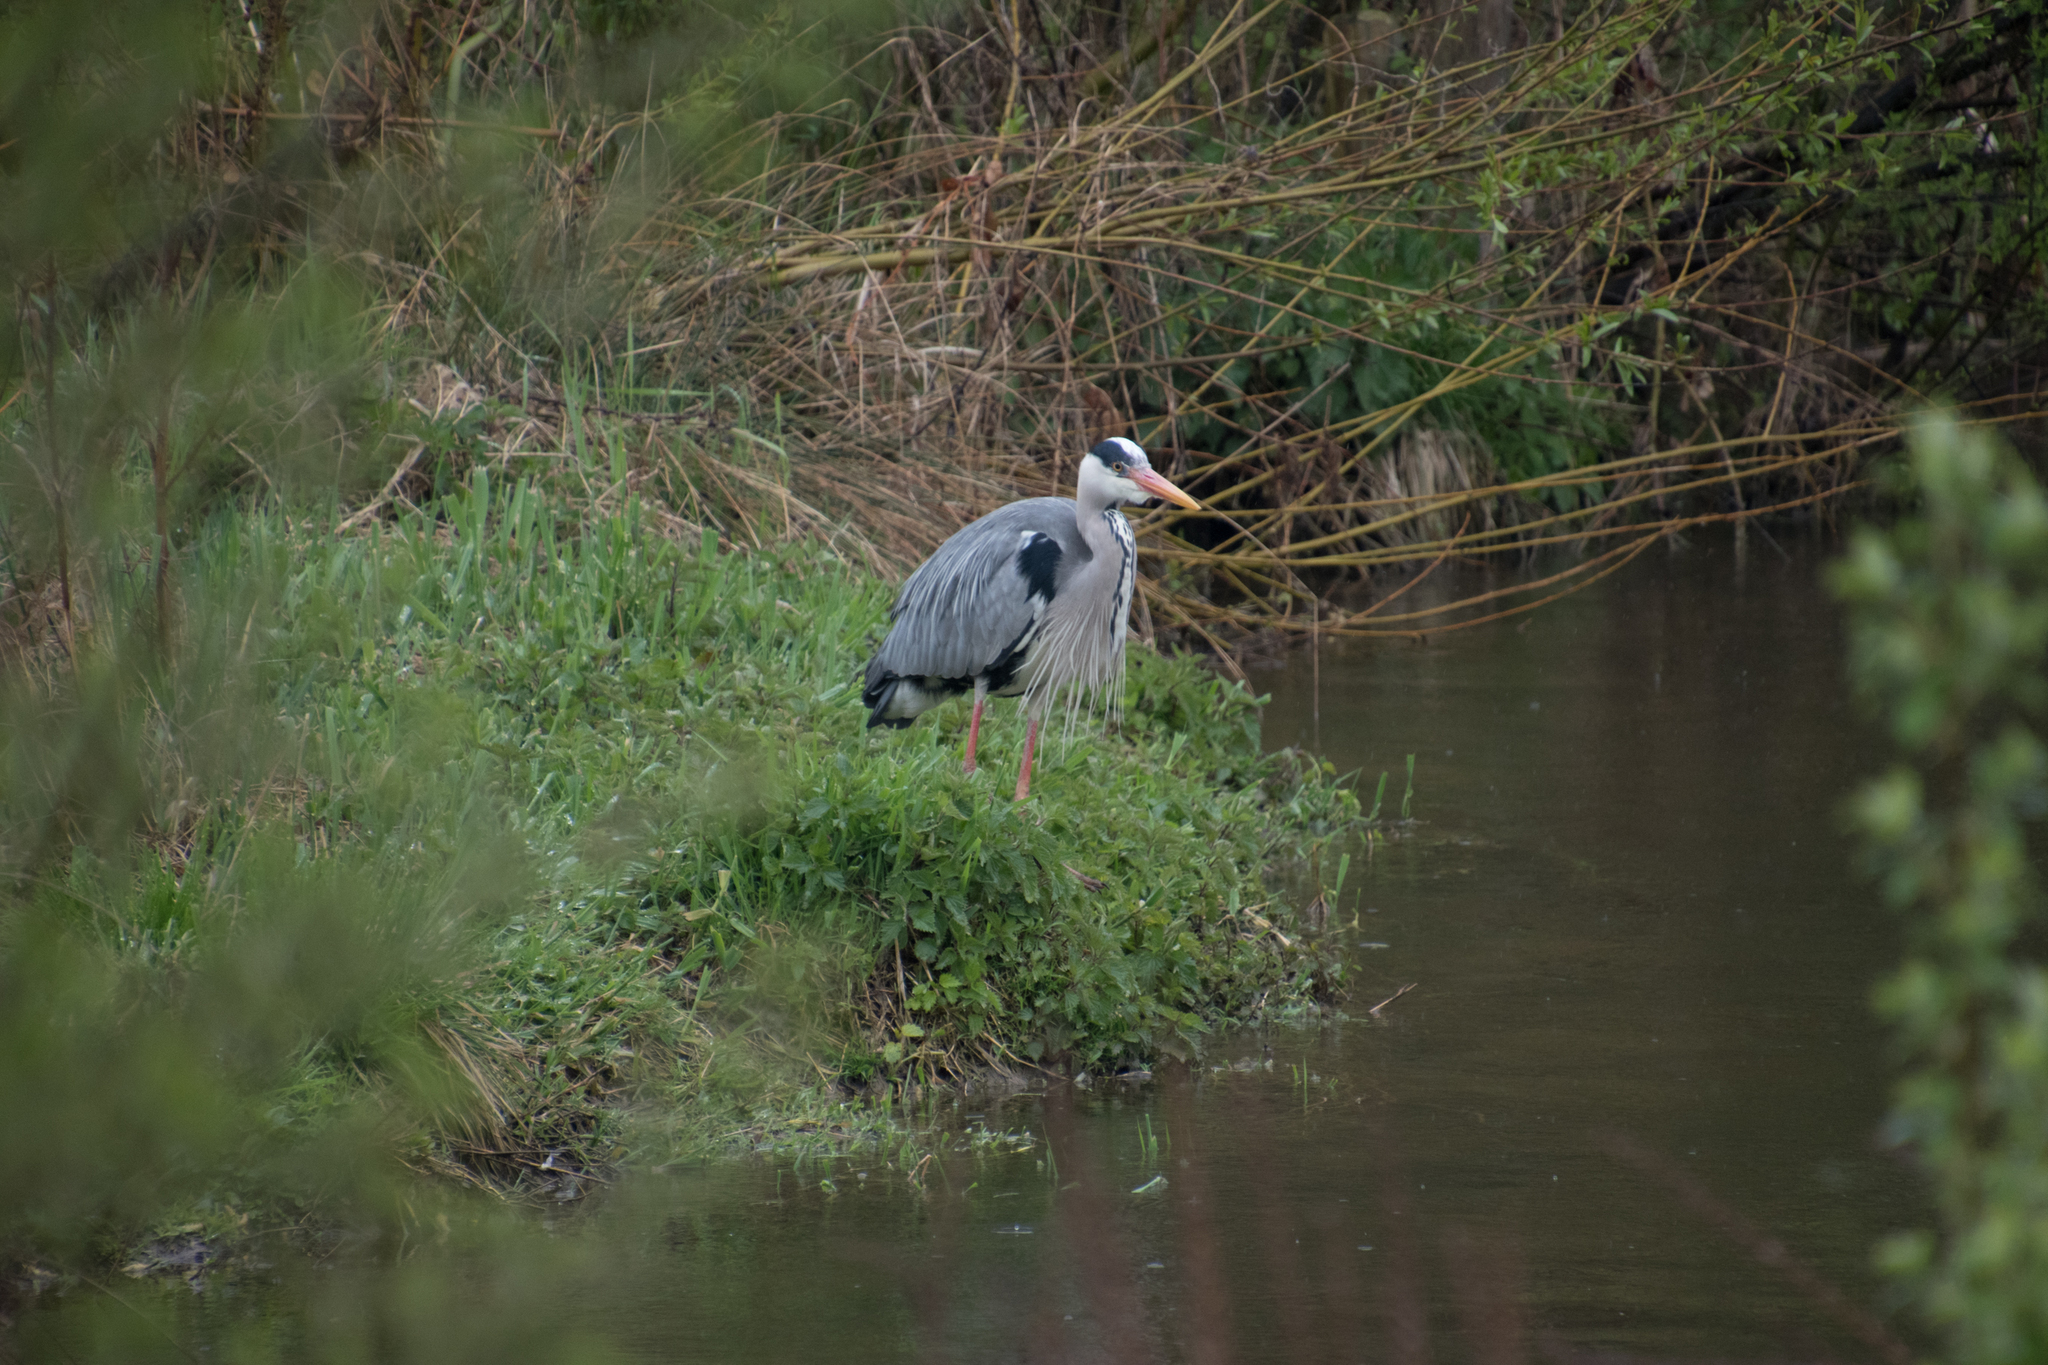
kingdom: Animalia
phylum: Chordata
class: Aves
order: Pelecaniformes
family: Ardeidae
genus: Ardea
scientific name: Ardea cinerea
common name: Grey heron
